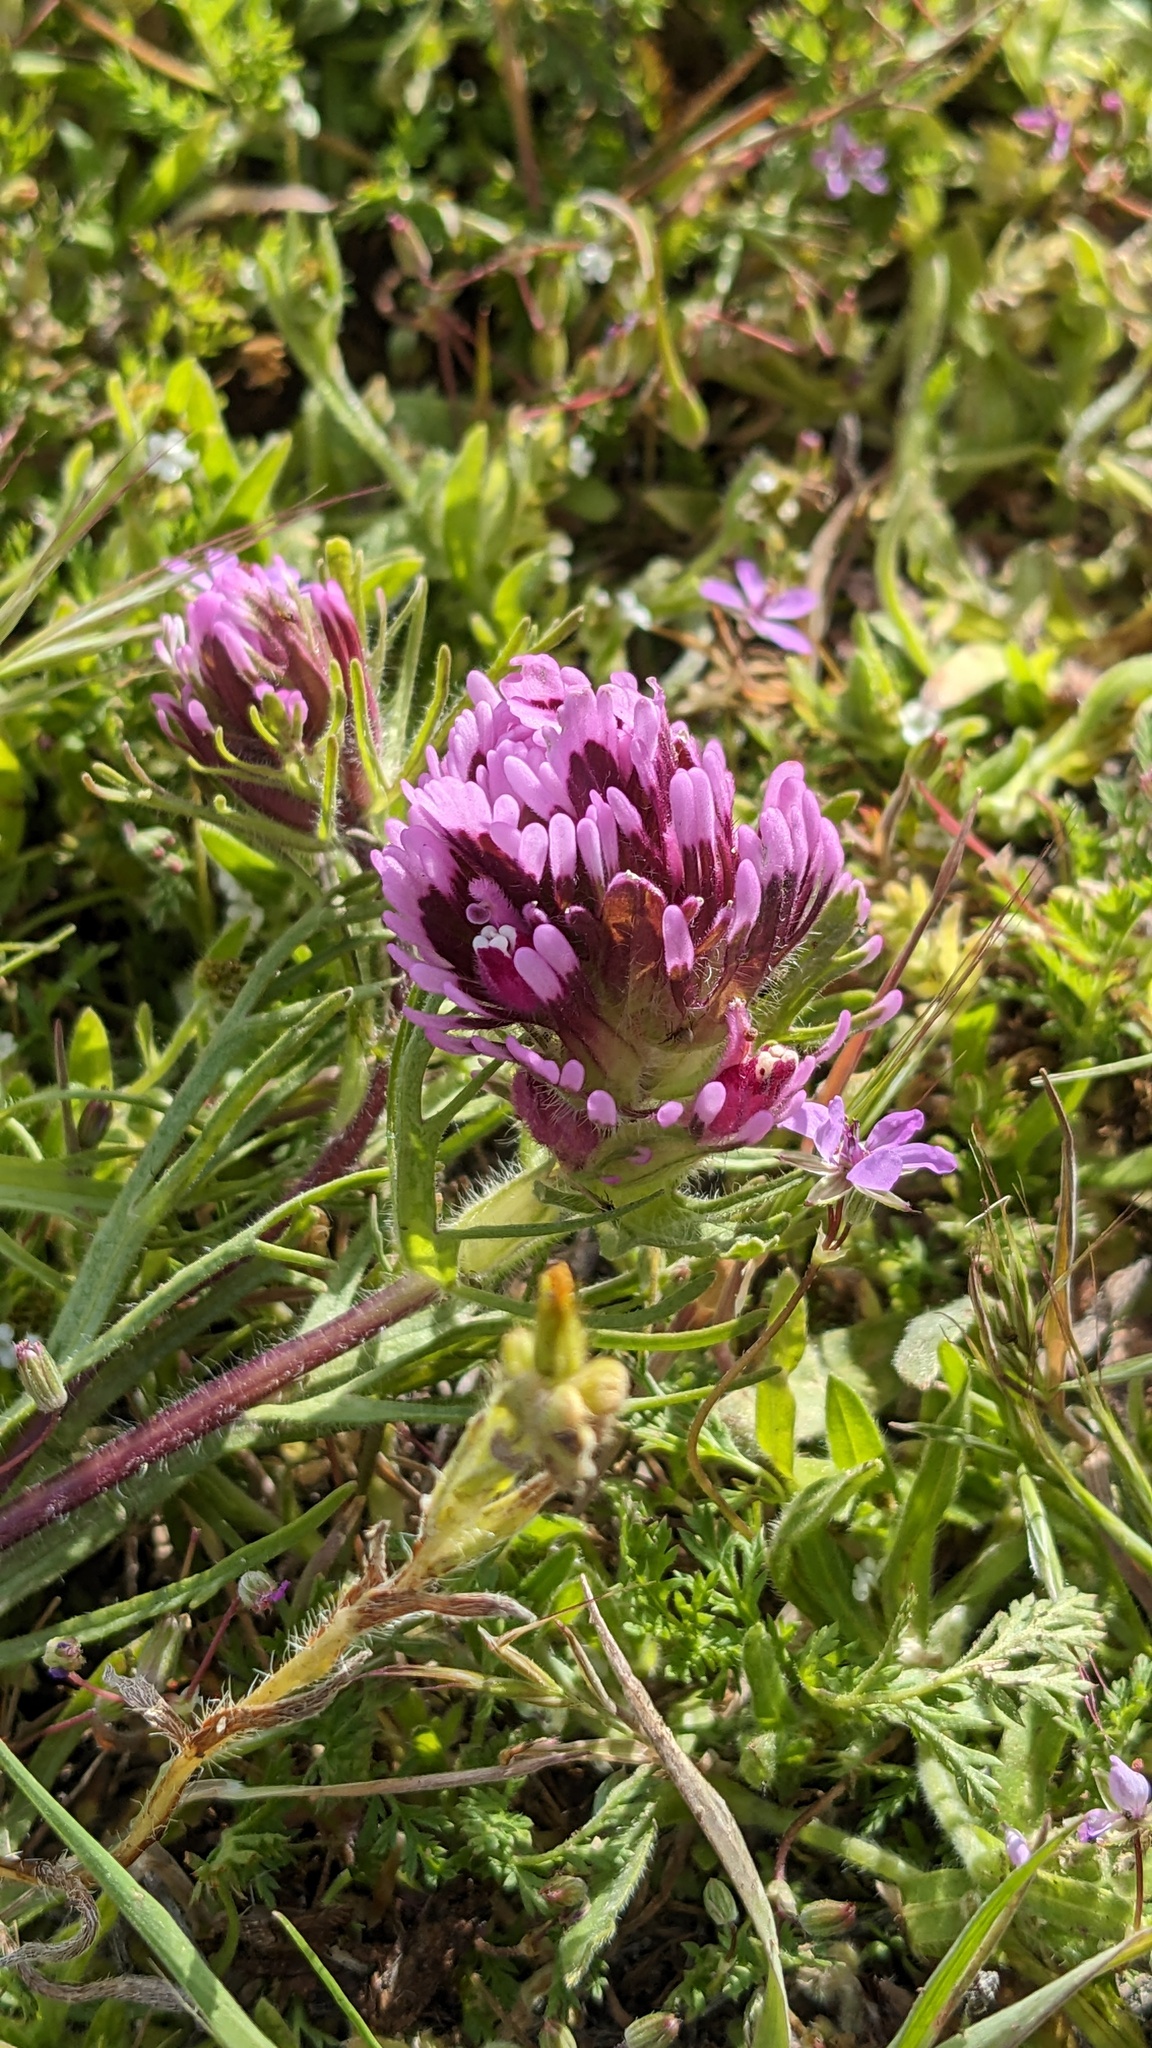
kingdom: Plantae
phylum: Tracheophyta
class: Magnoliopsida
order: Lamiales
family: Orobanchaceae
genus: Castilleja
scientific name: Castilleja exserta
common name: Purple owl-clover
